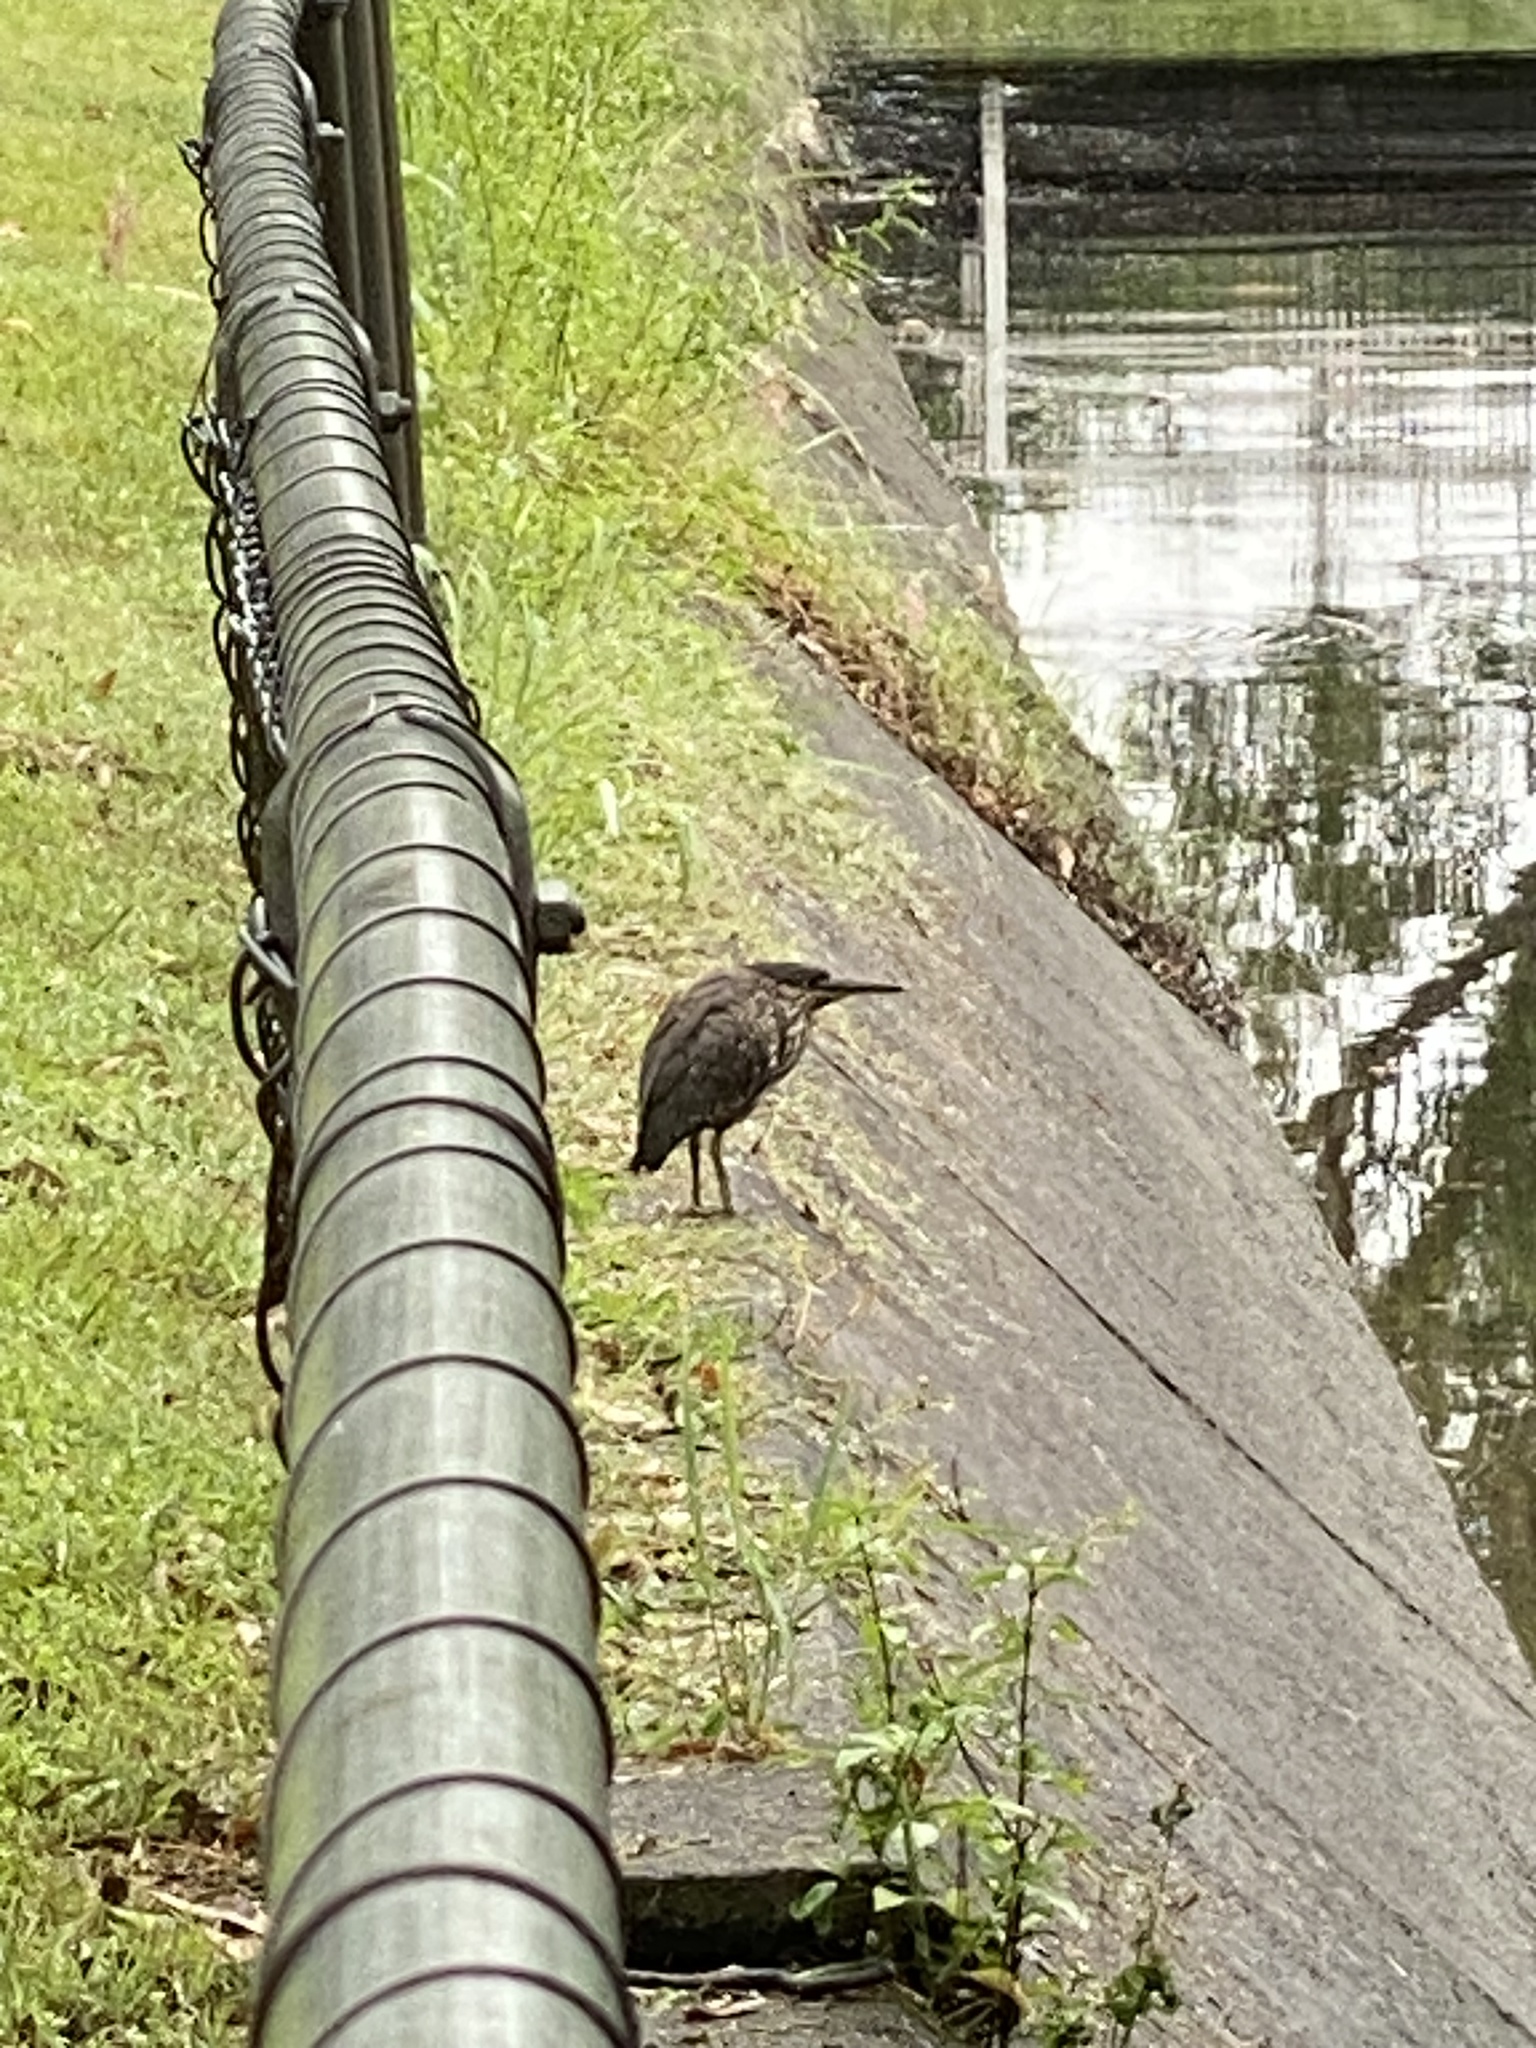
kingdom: Animalia
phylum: Chordata
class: Aves
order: Pelecaniformes
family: Ardeidae
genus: Butorides
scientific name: Butorides striata
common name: Striated heron
